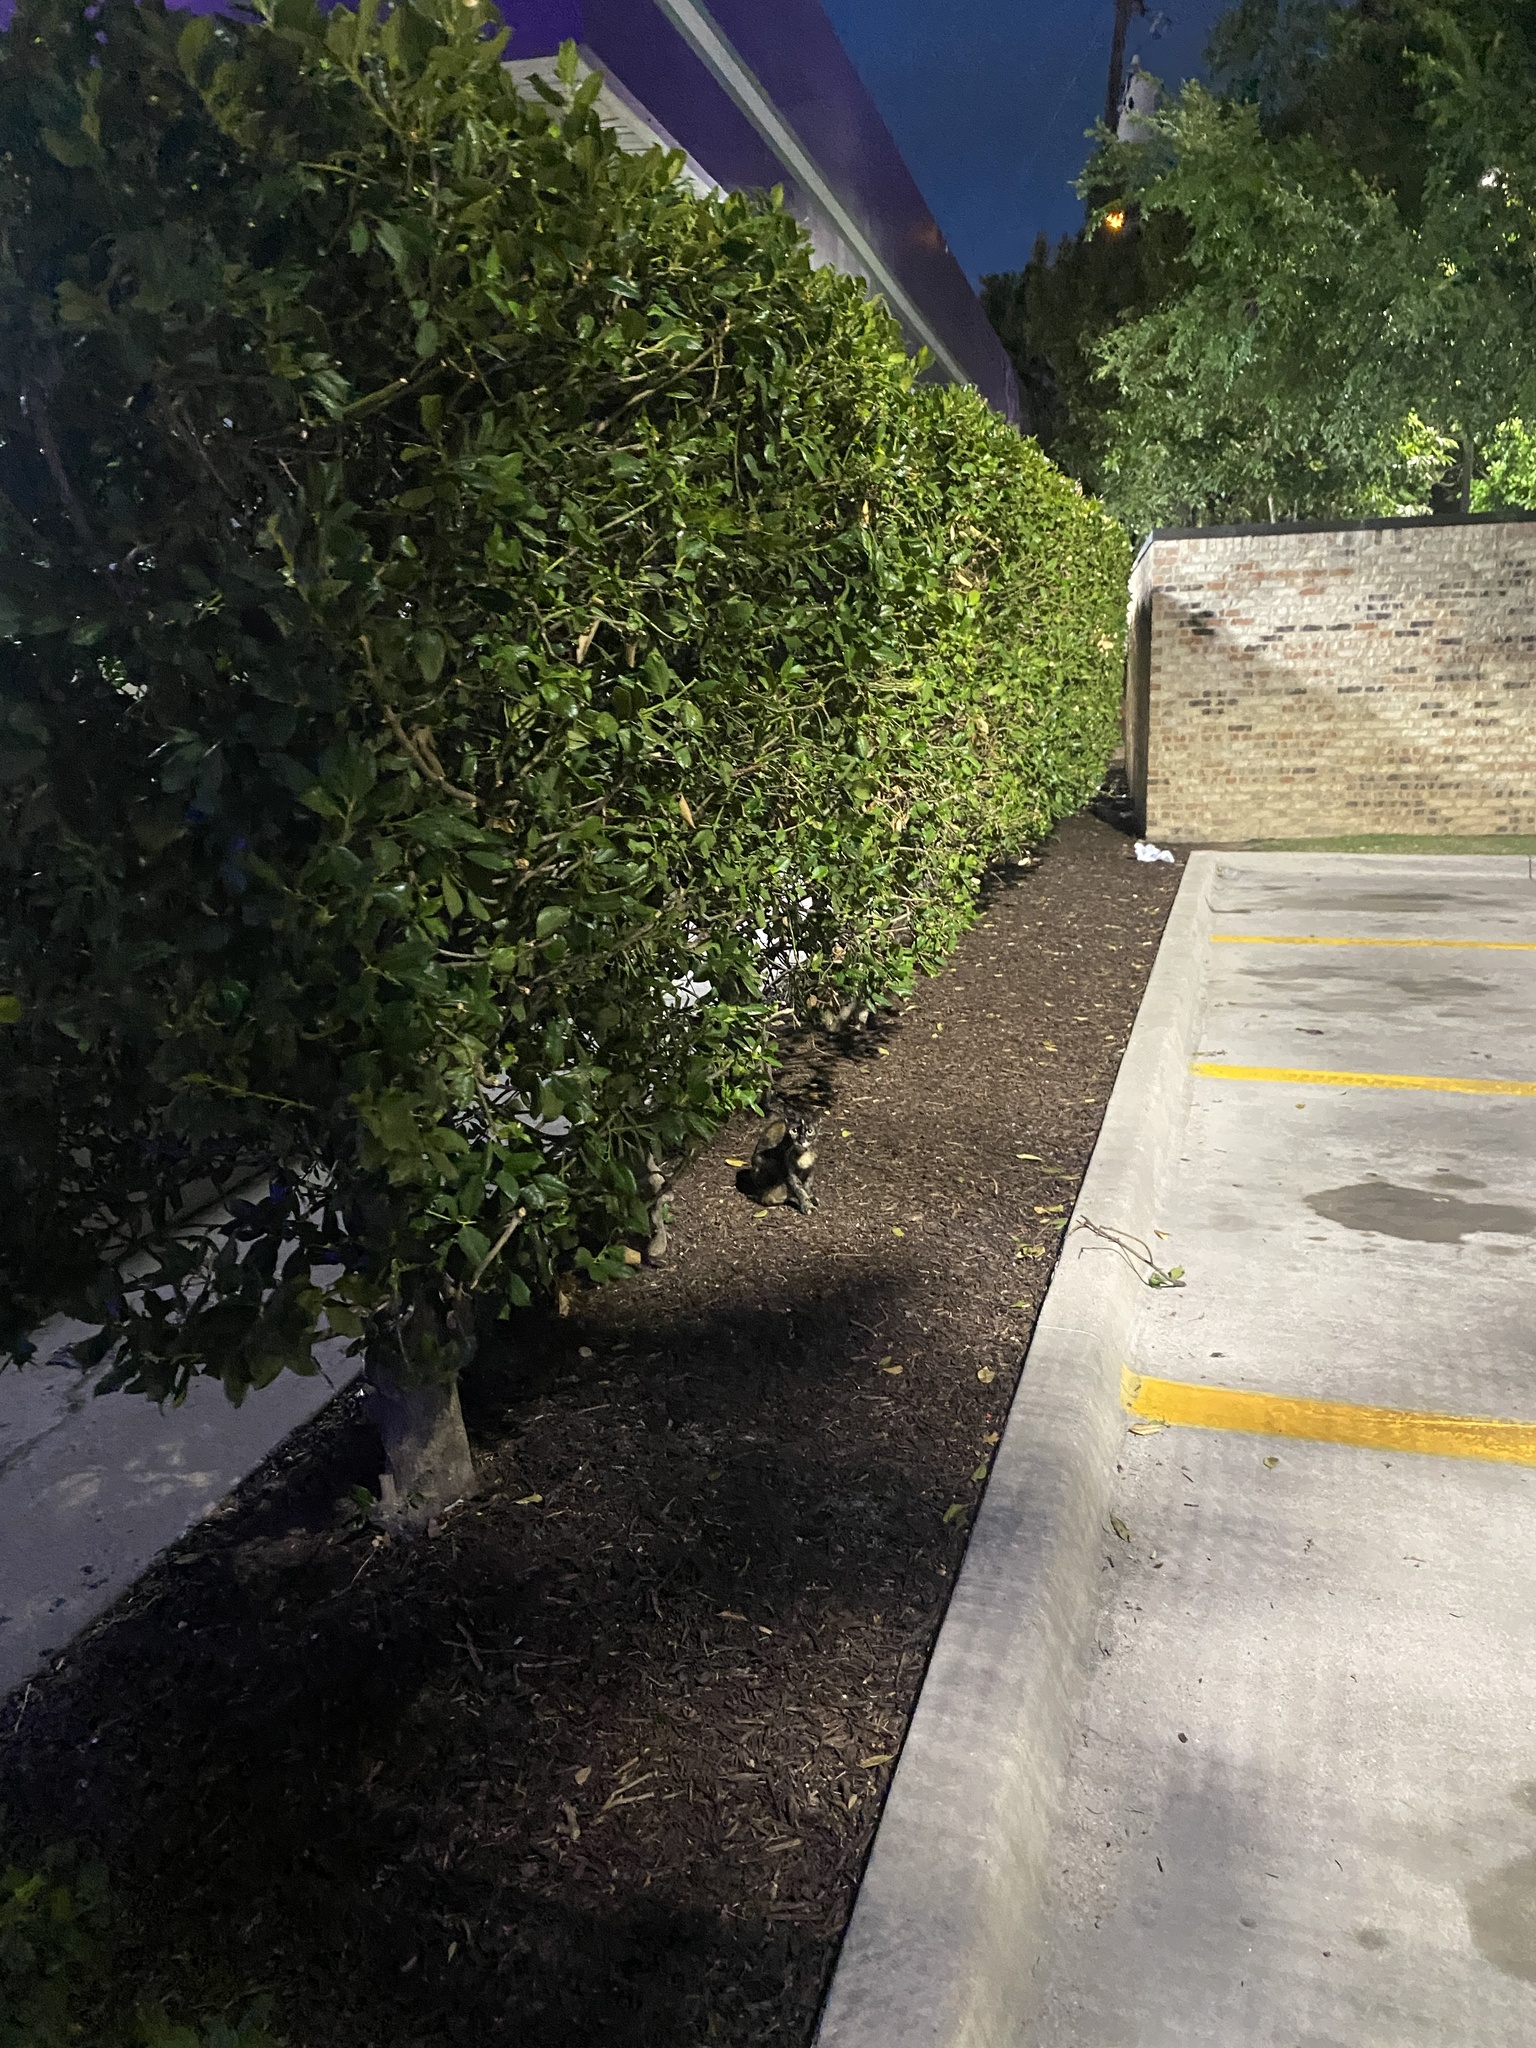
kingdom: Animalia
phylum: Chordata
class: Mammalia
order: Carnivora
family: Felidae
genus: Felis
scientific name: Felis catus
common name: Domestic cat
